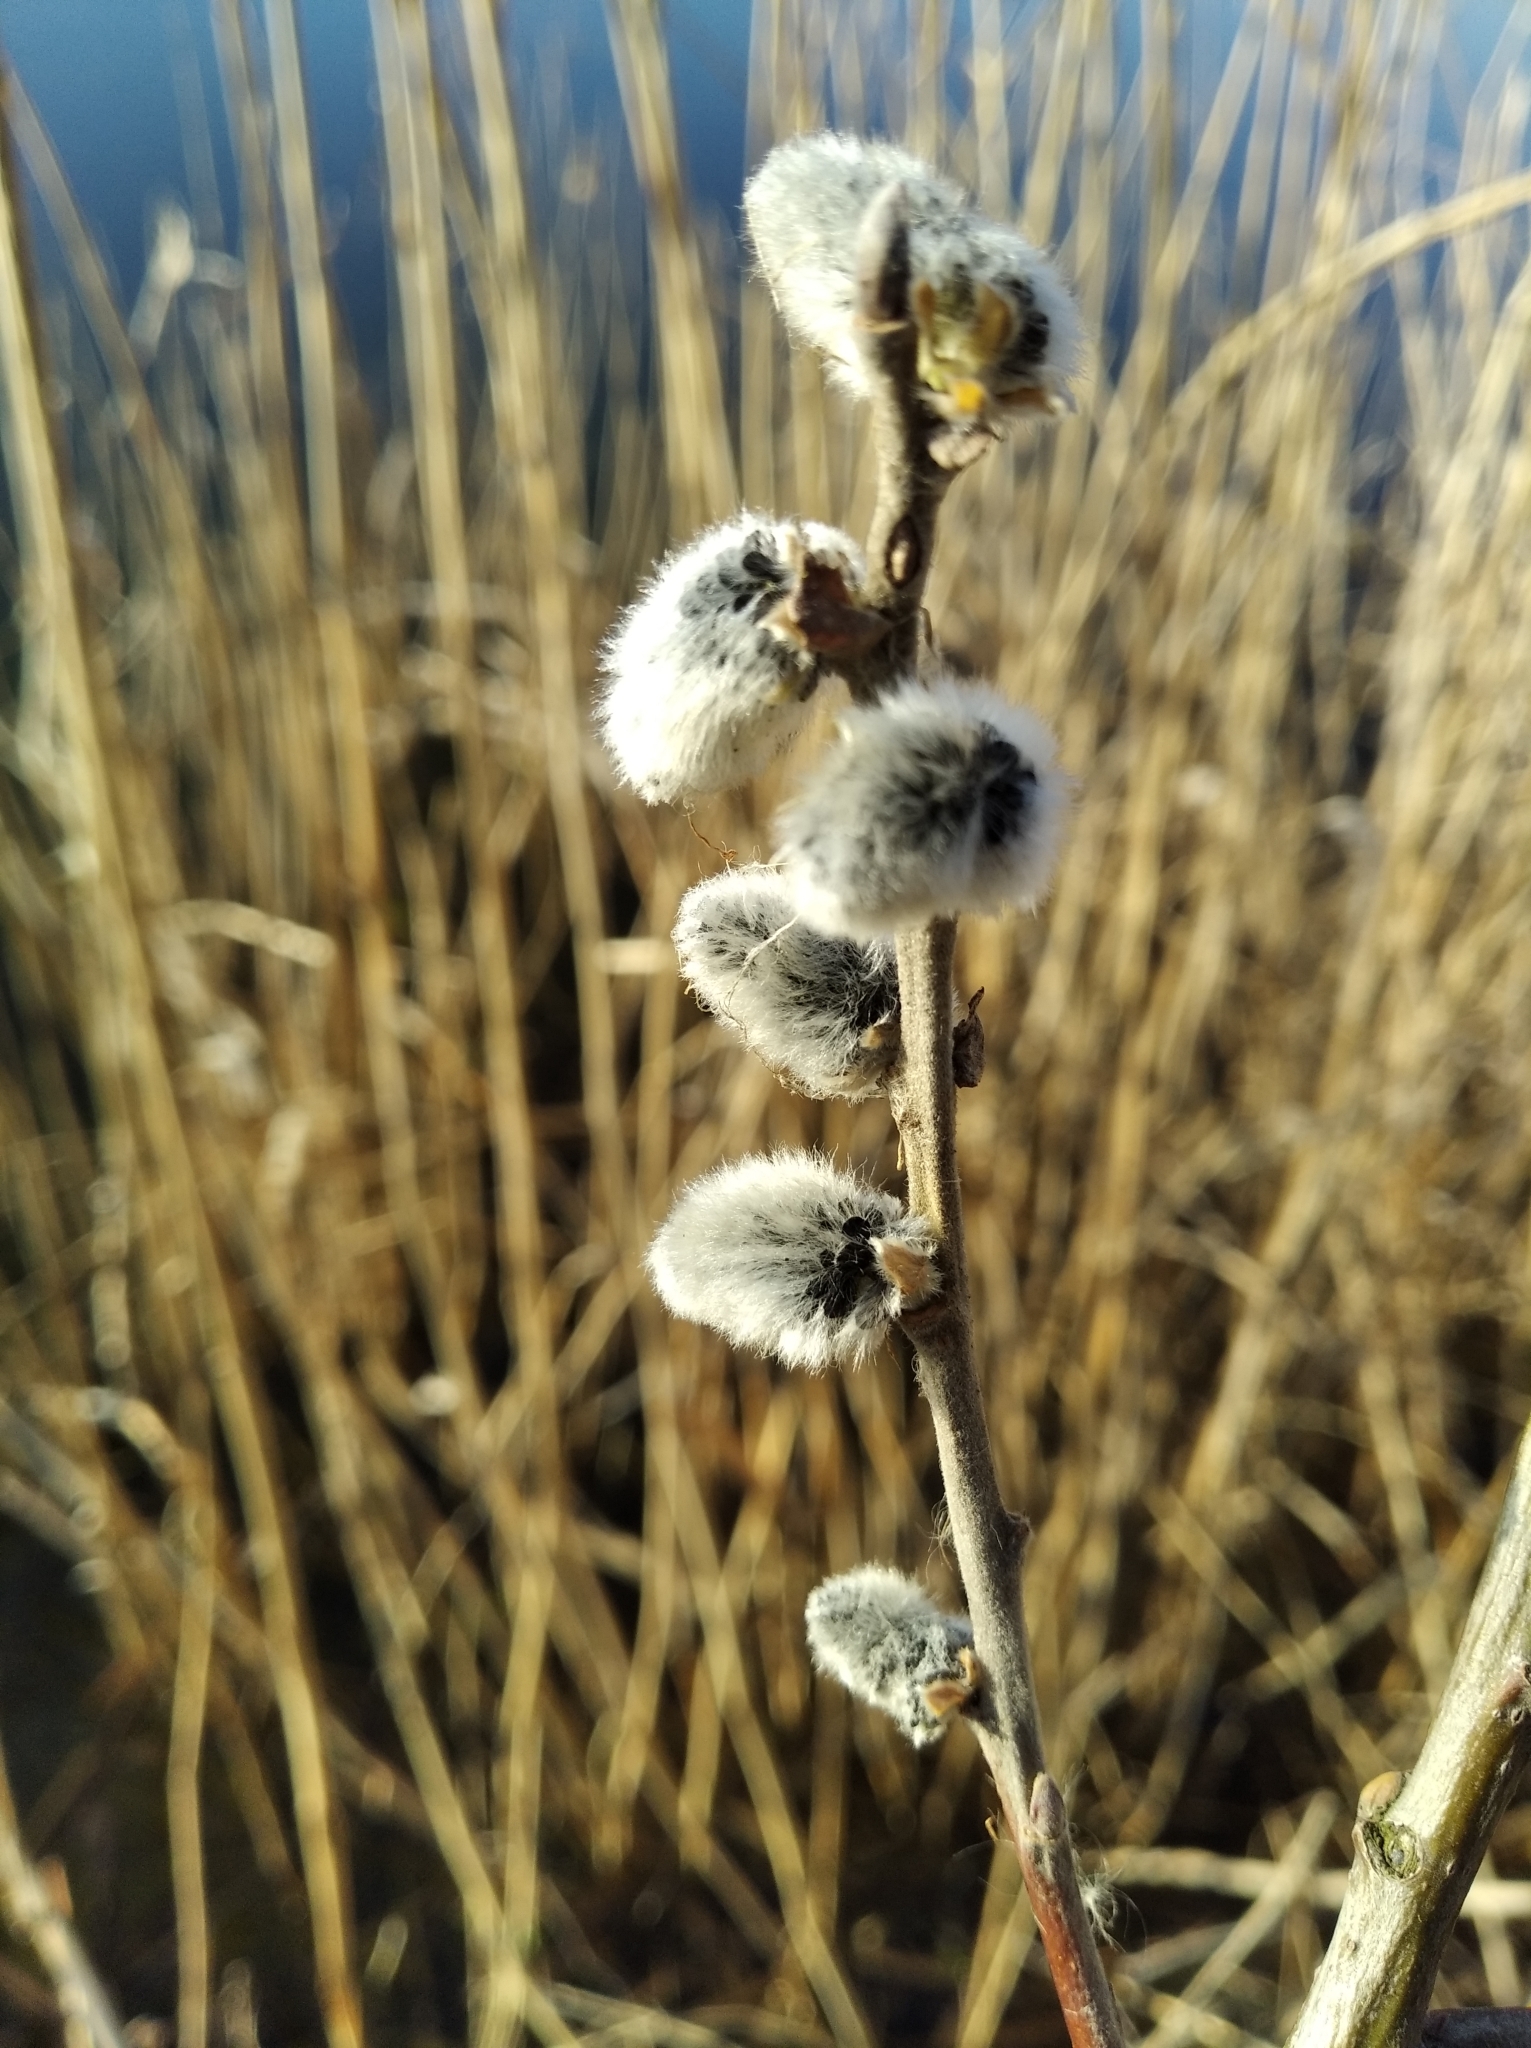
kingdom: Plantae
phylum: Tracheophyta
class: Magnoliopsida
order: Malpighiales
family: Salicaceae
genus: Salix
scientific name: Salix cinerea
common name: Common sallow
